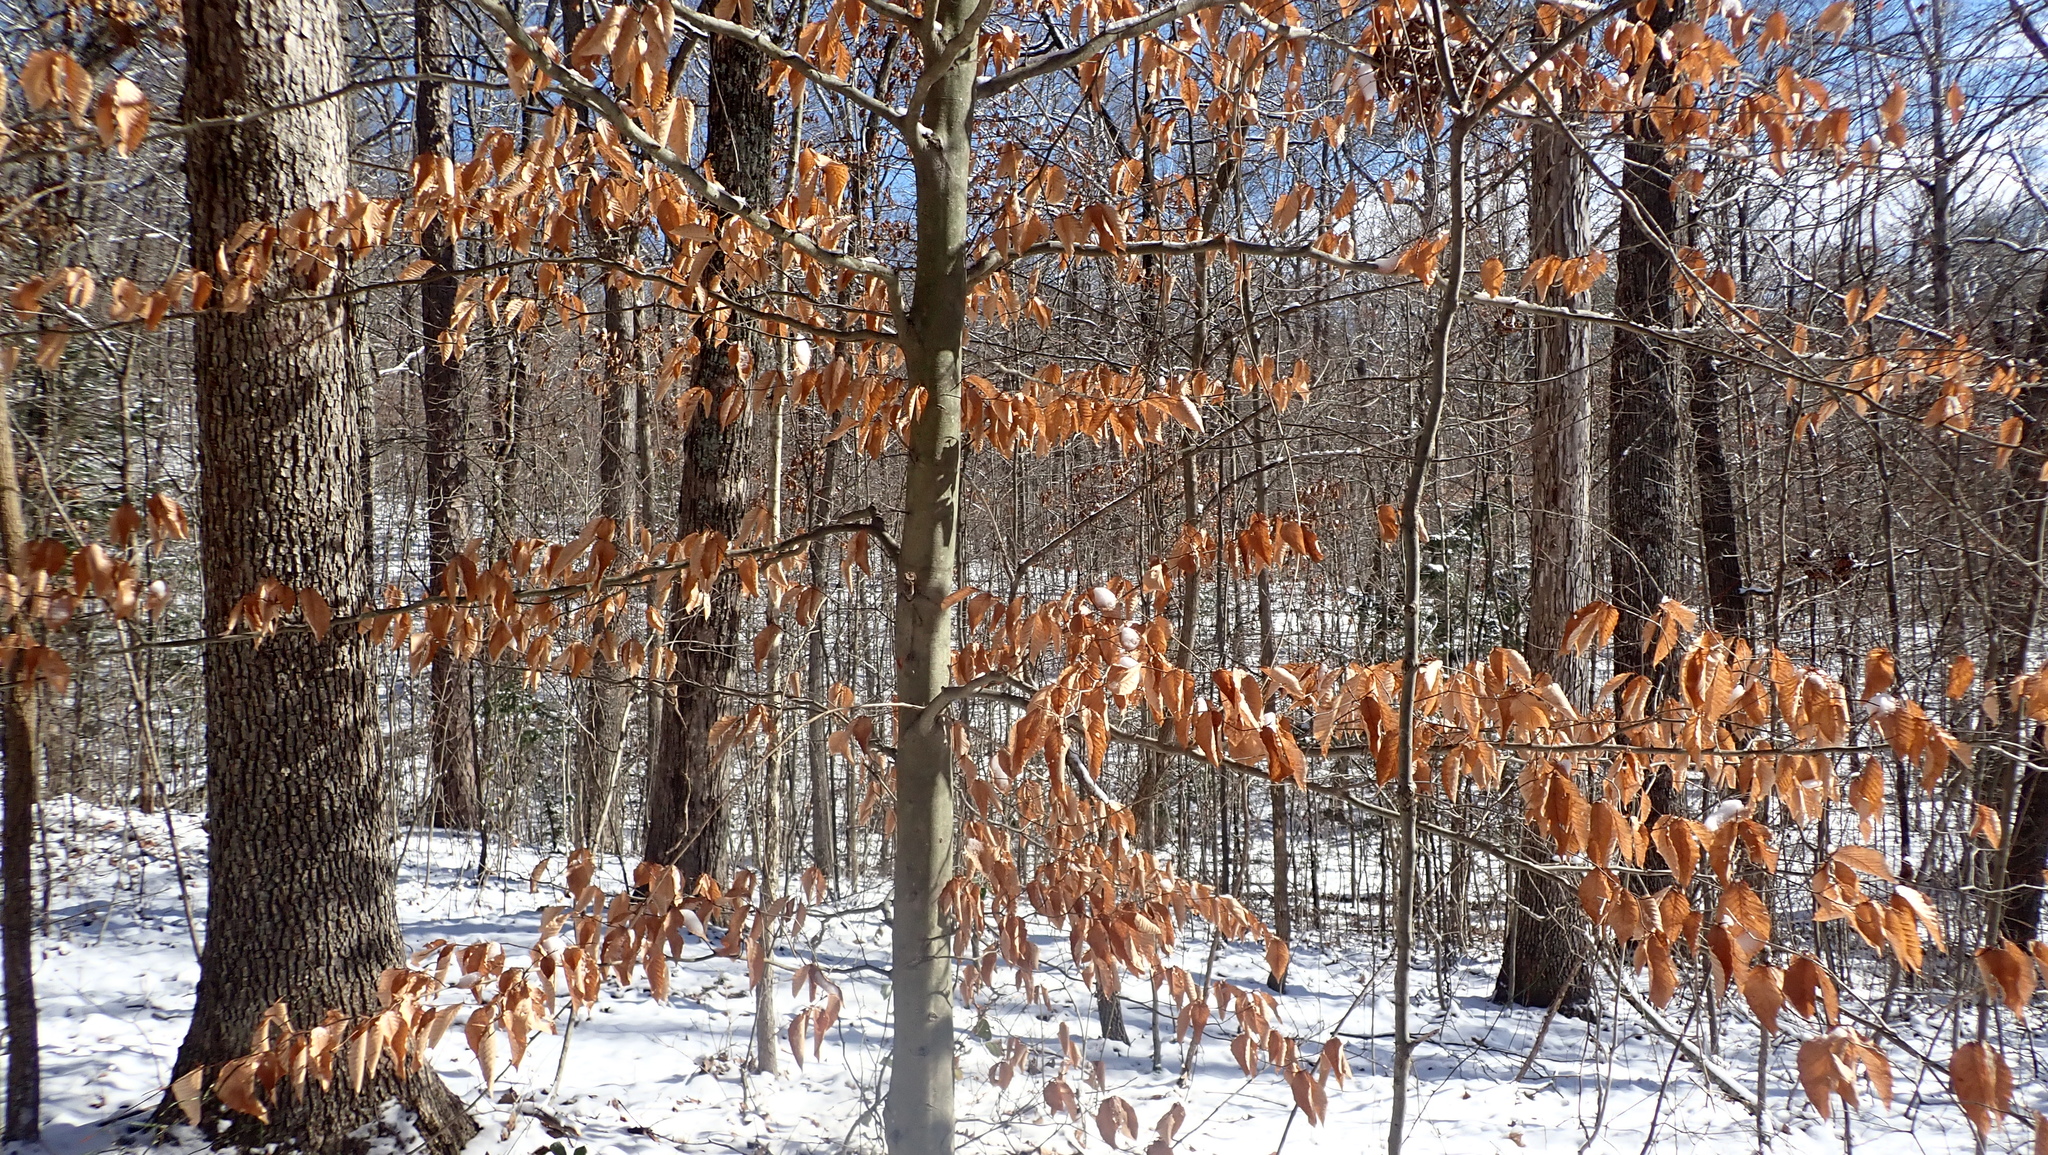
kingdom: Plantae
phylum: Tracheophyta
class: Magnoliopsida
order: Fagales
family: Fagaceae
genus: Fagus
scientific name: Fagus grandifolia
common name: American beech
